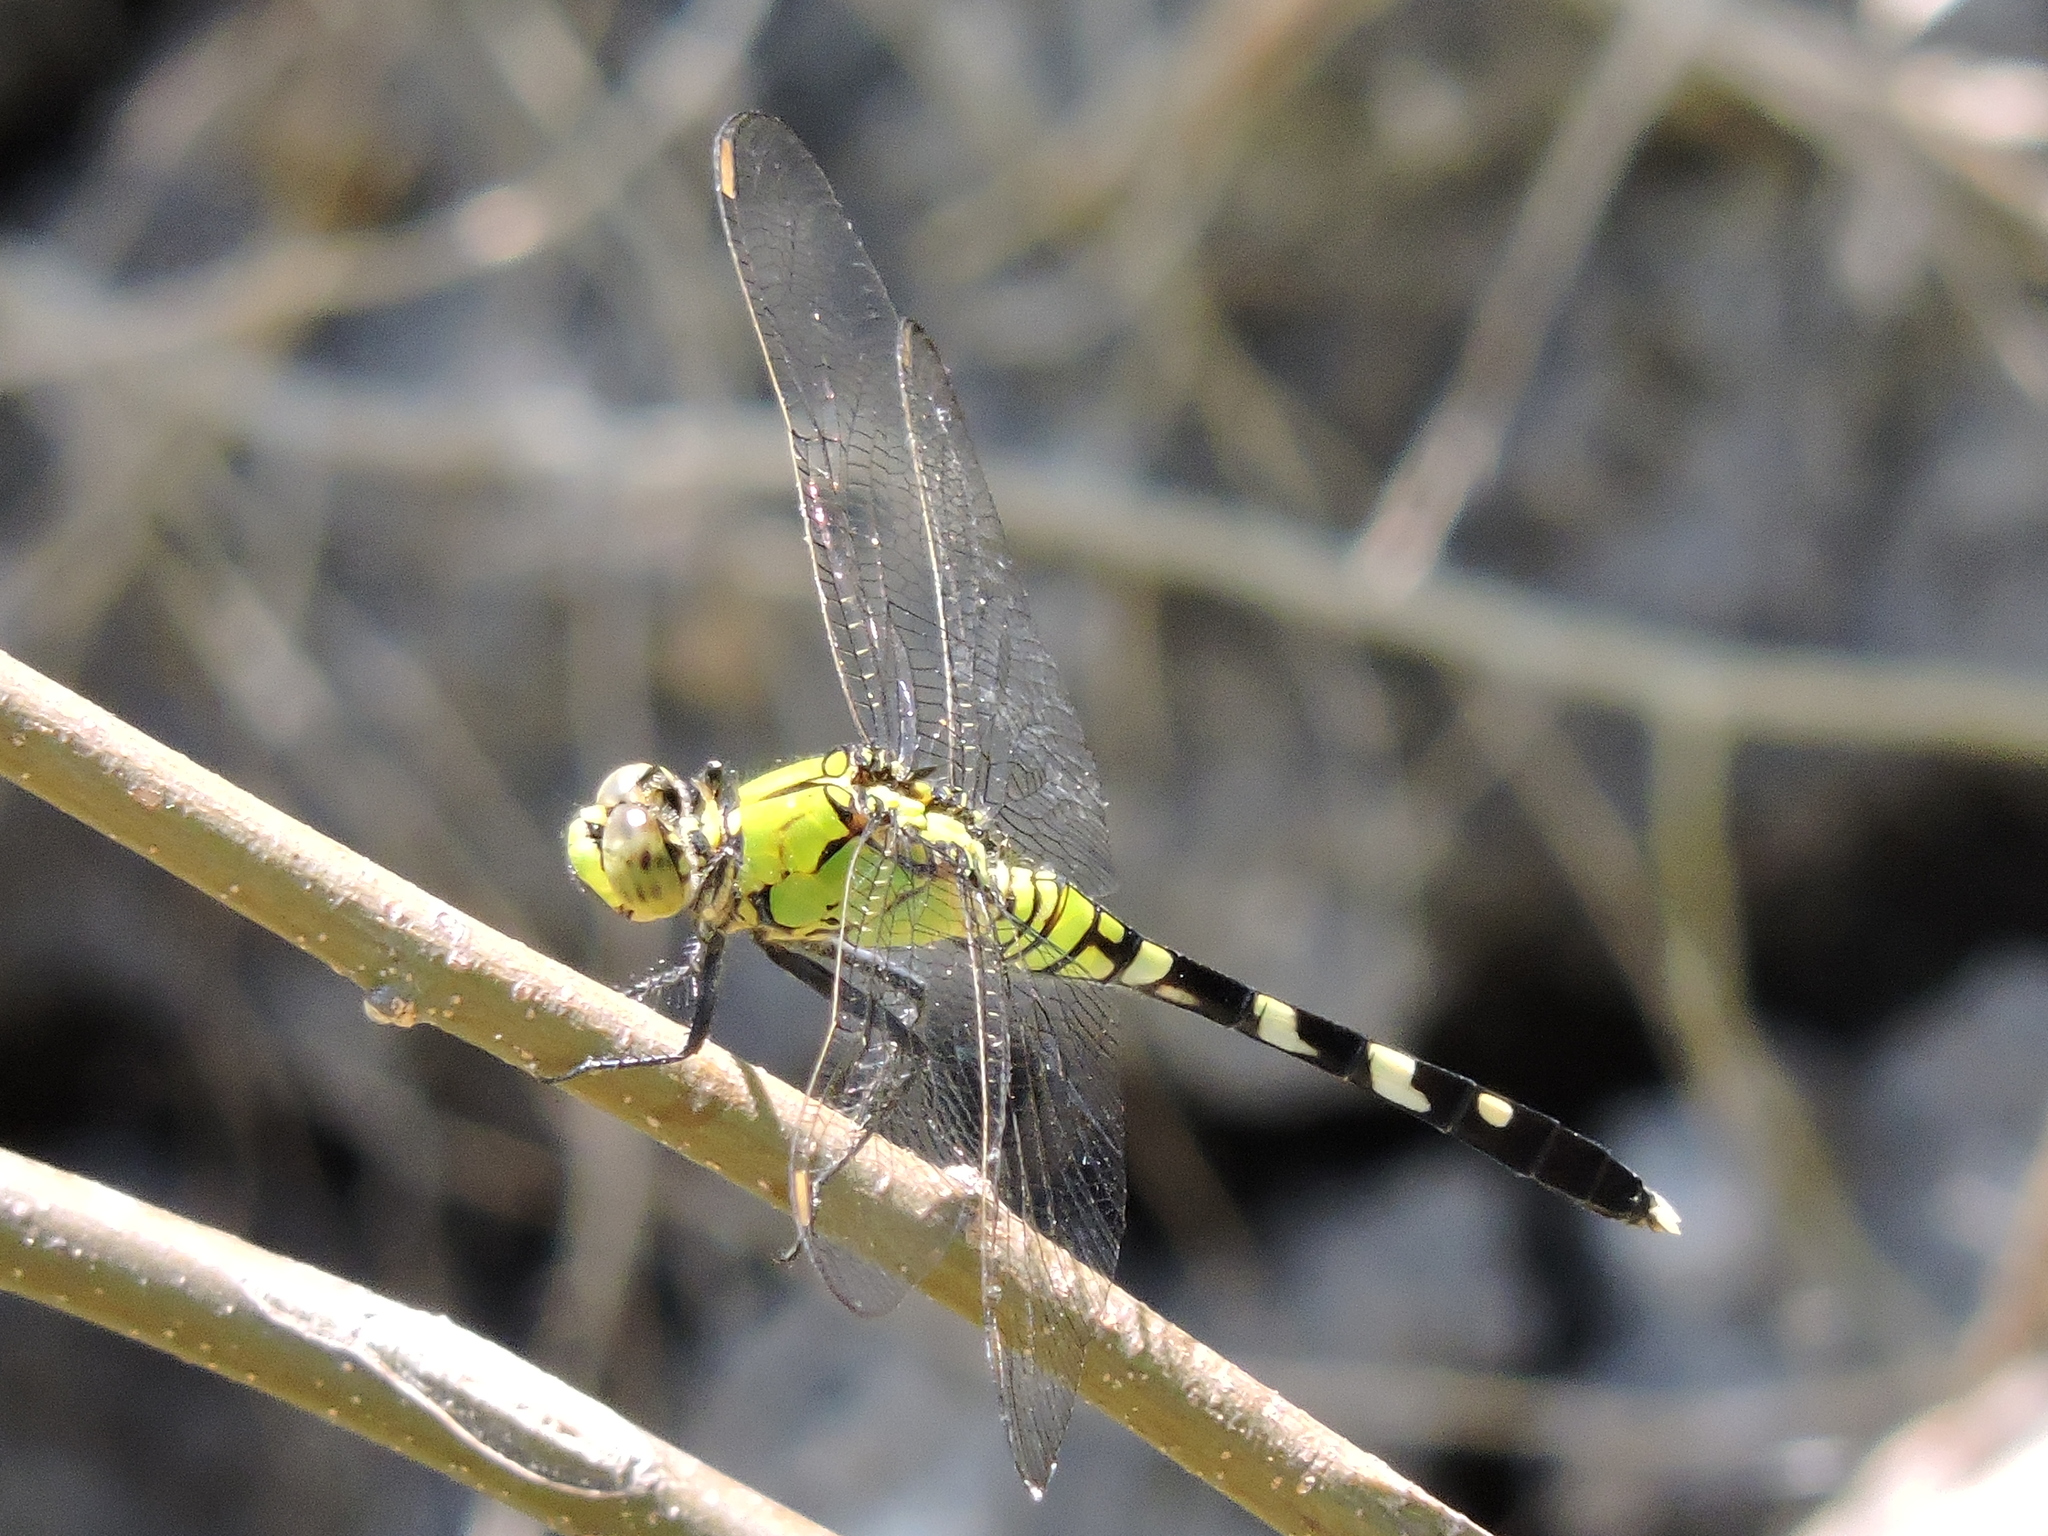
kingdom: Animalia
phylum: Arthropoda
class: Insecta
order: Odonata
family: Libellulidae
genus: Erythemis
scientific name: Erythemis simplicicollis
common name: Eastern pondhawk
